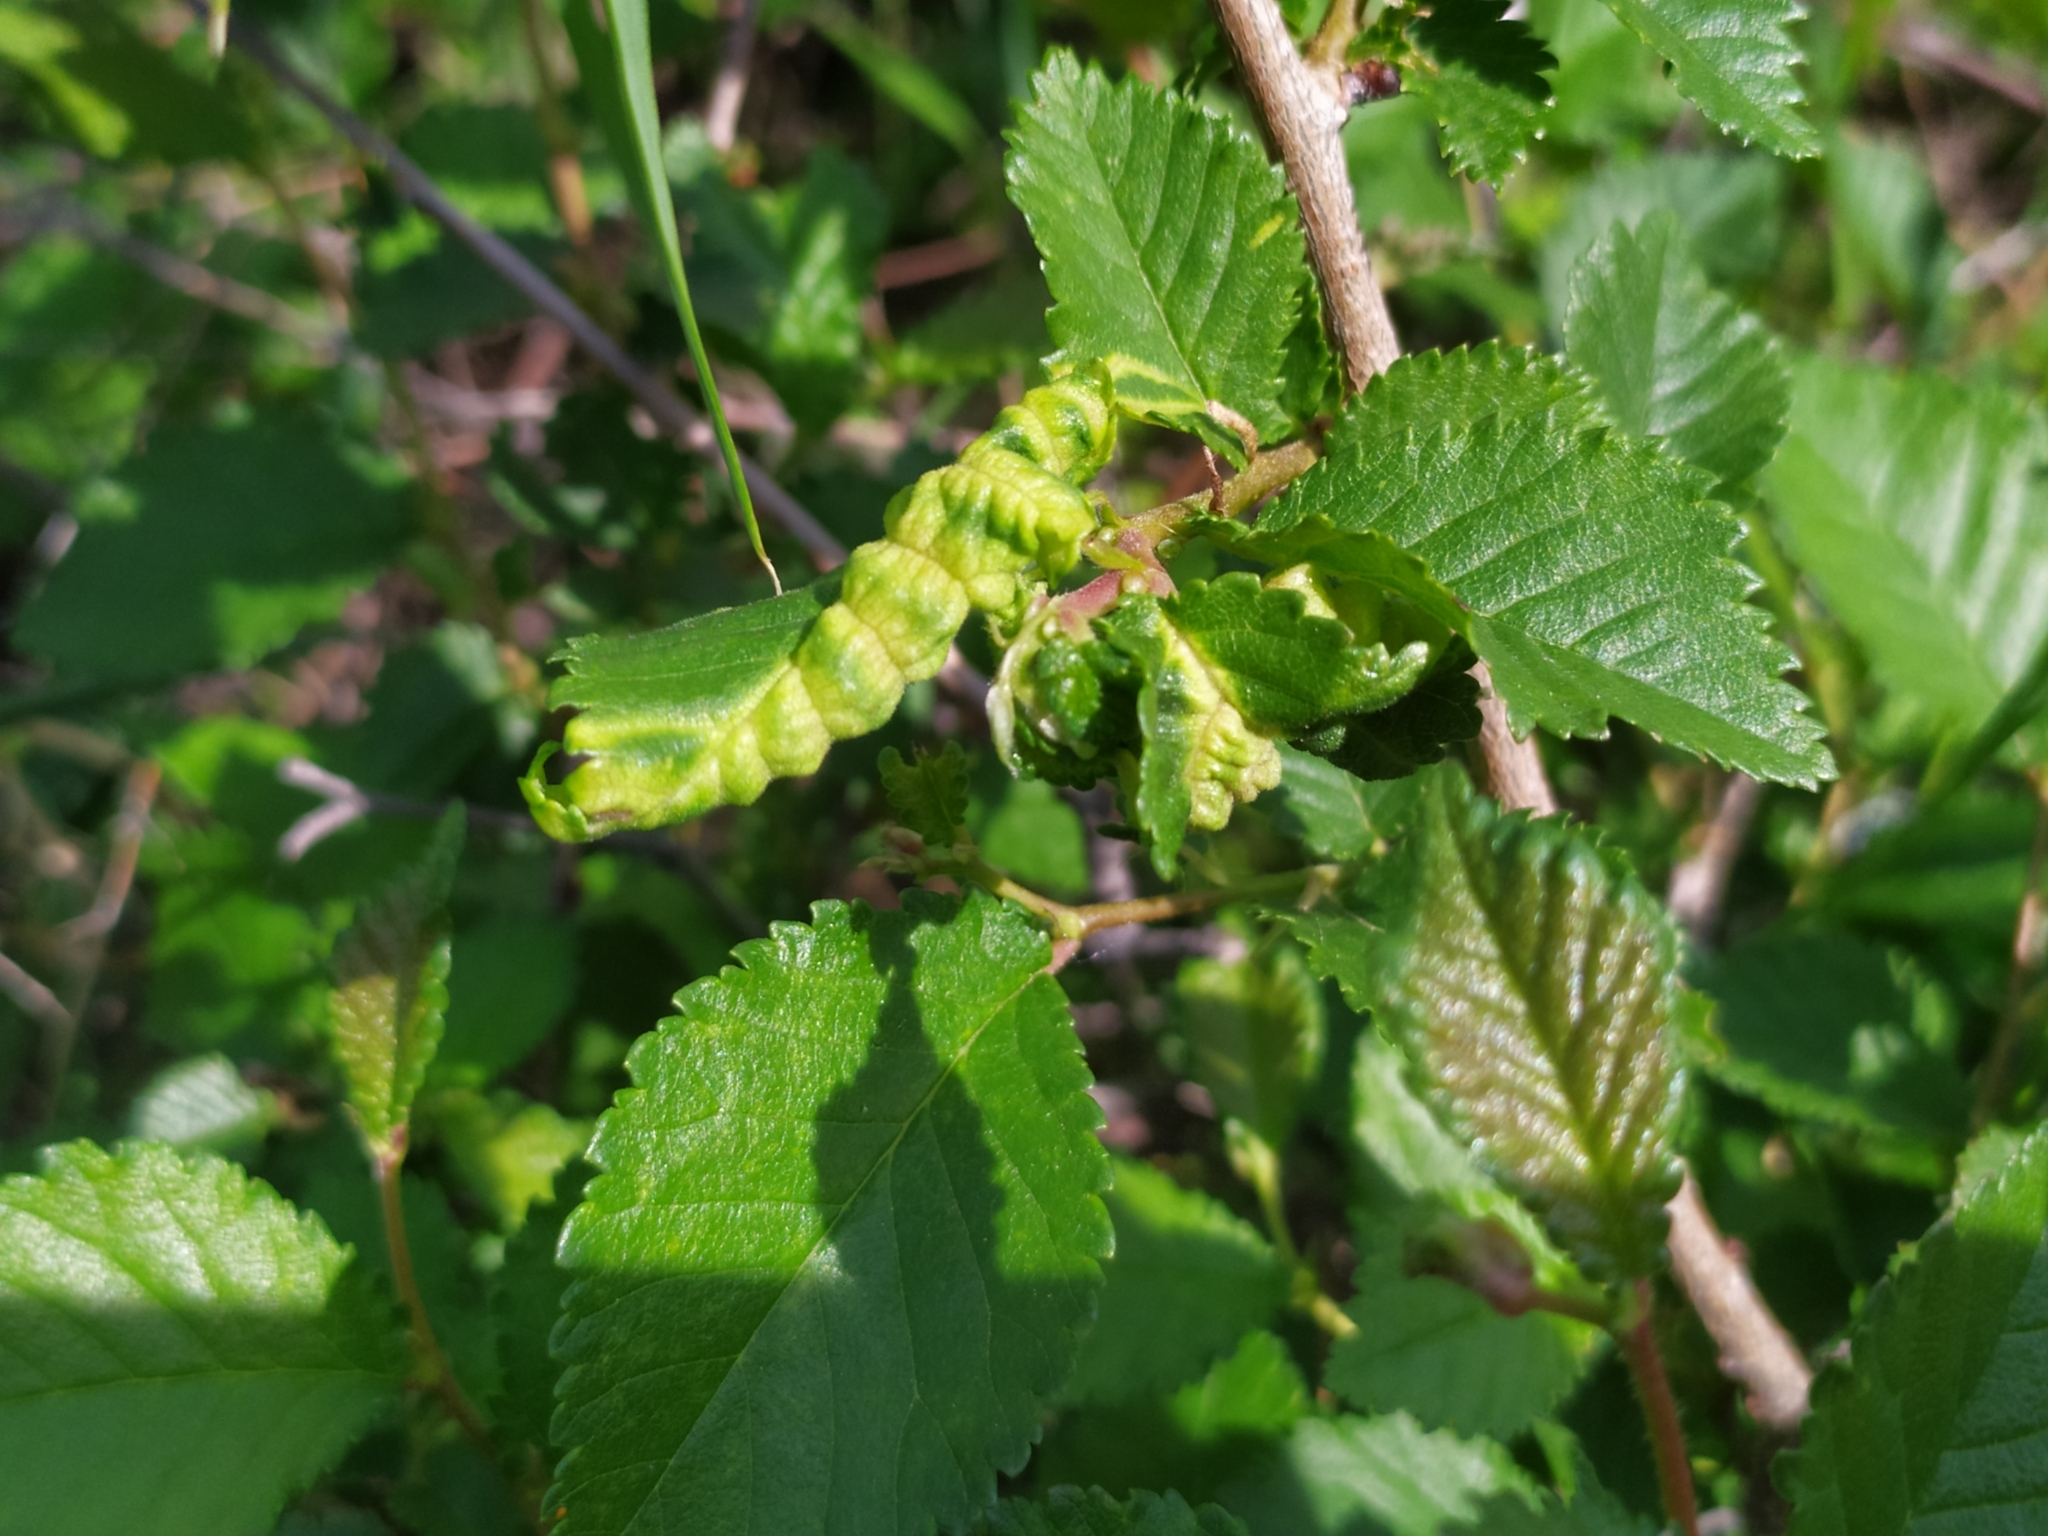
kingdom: Animalia
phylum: Arthropoda
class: Insecta
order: Hemiptera
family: Aphididae
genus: Eriosoma
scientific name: Eriosoma ulmi
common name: Woolly aphids
